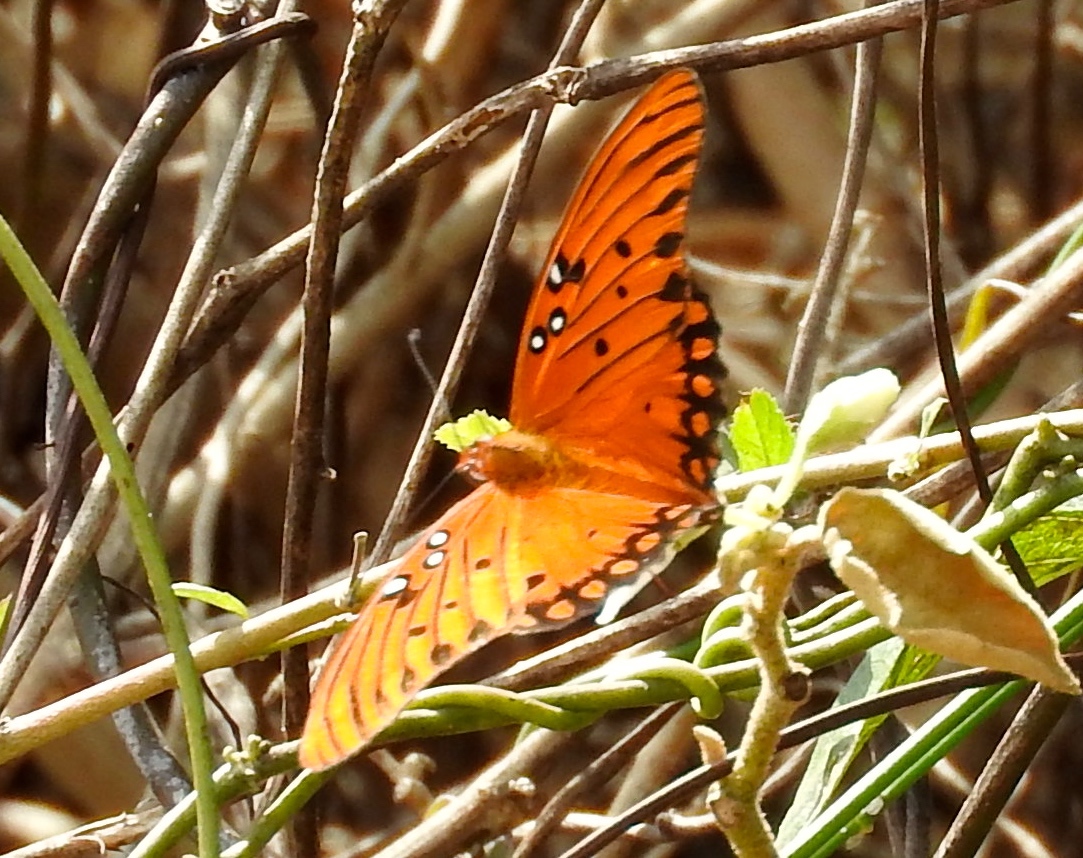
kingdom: Animalia
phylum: Arthropoda
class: Insecta
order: Lepidoptera
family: Nymphalidae
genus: Dione
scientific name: Dione vanillae
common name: Gulf fritillary
